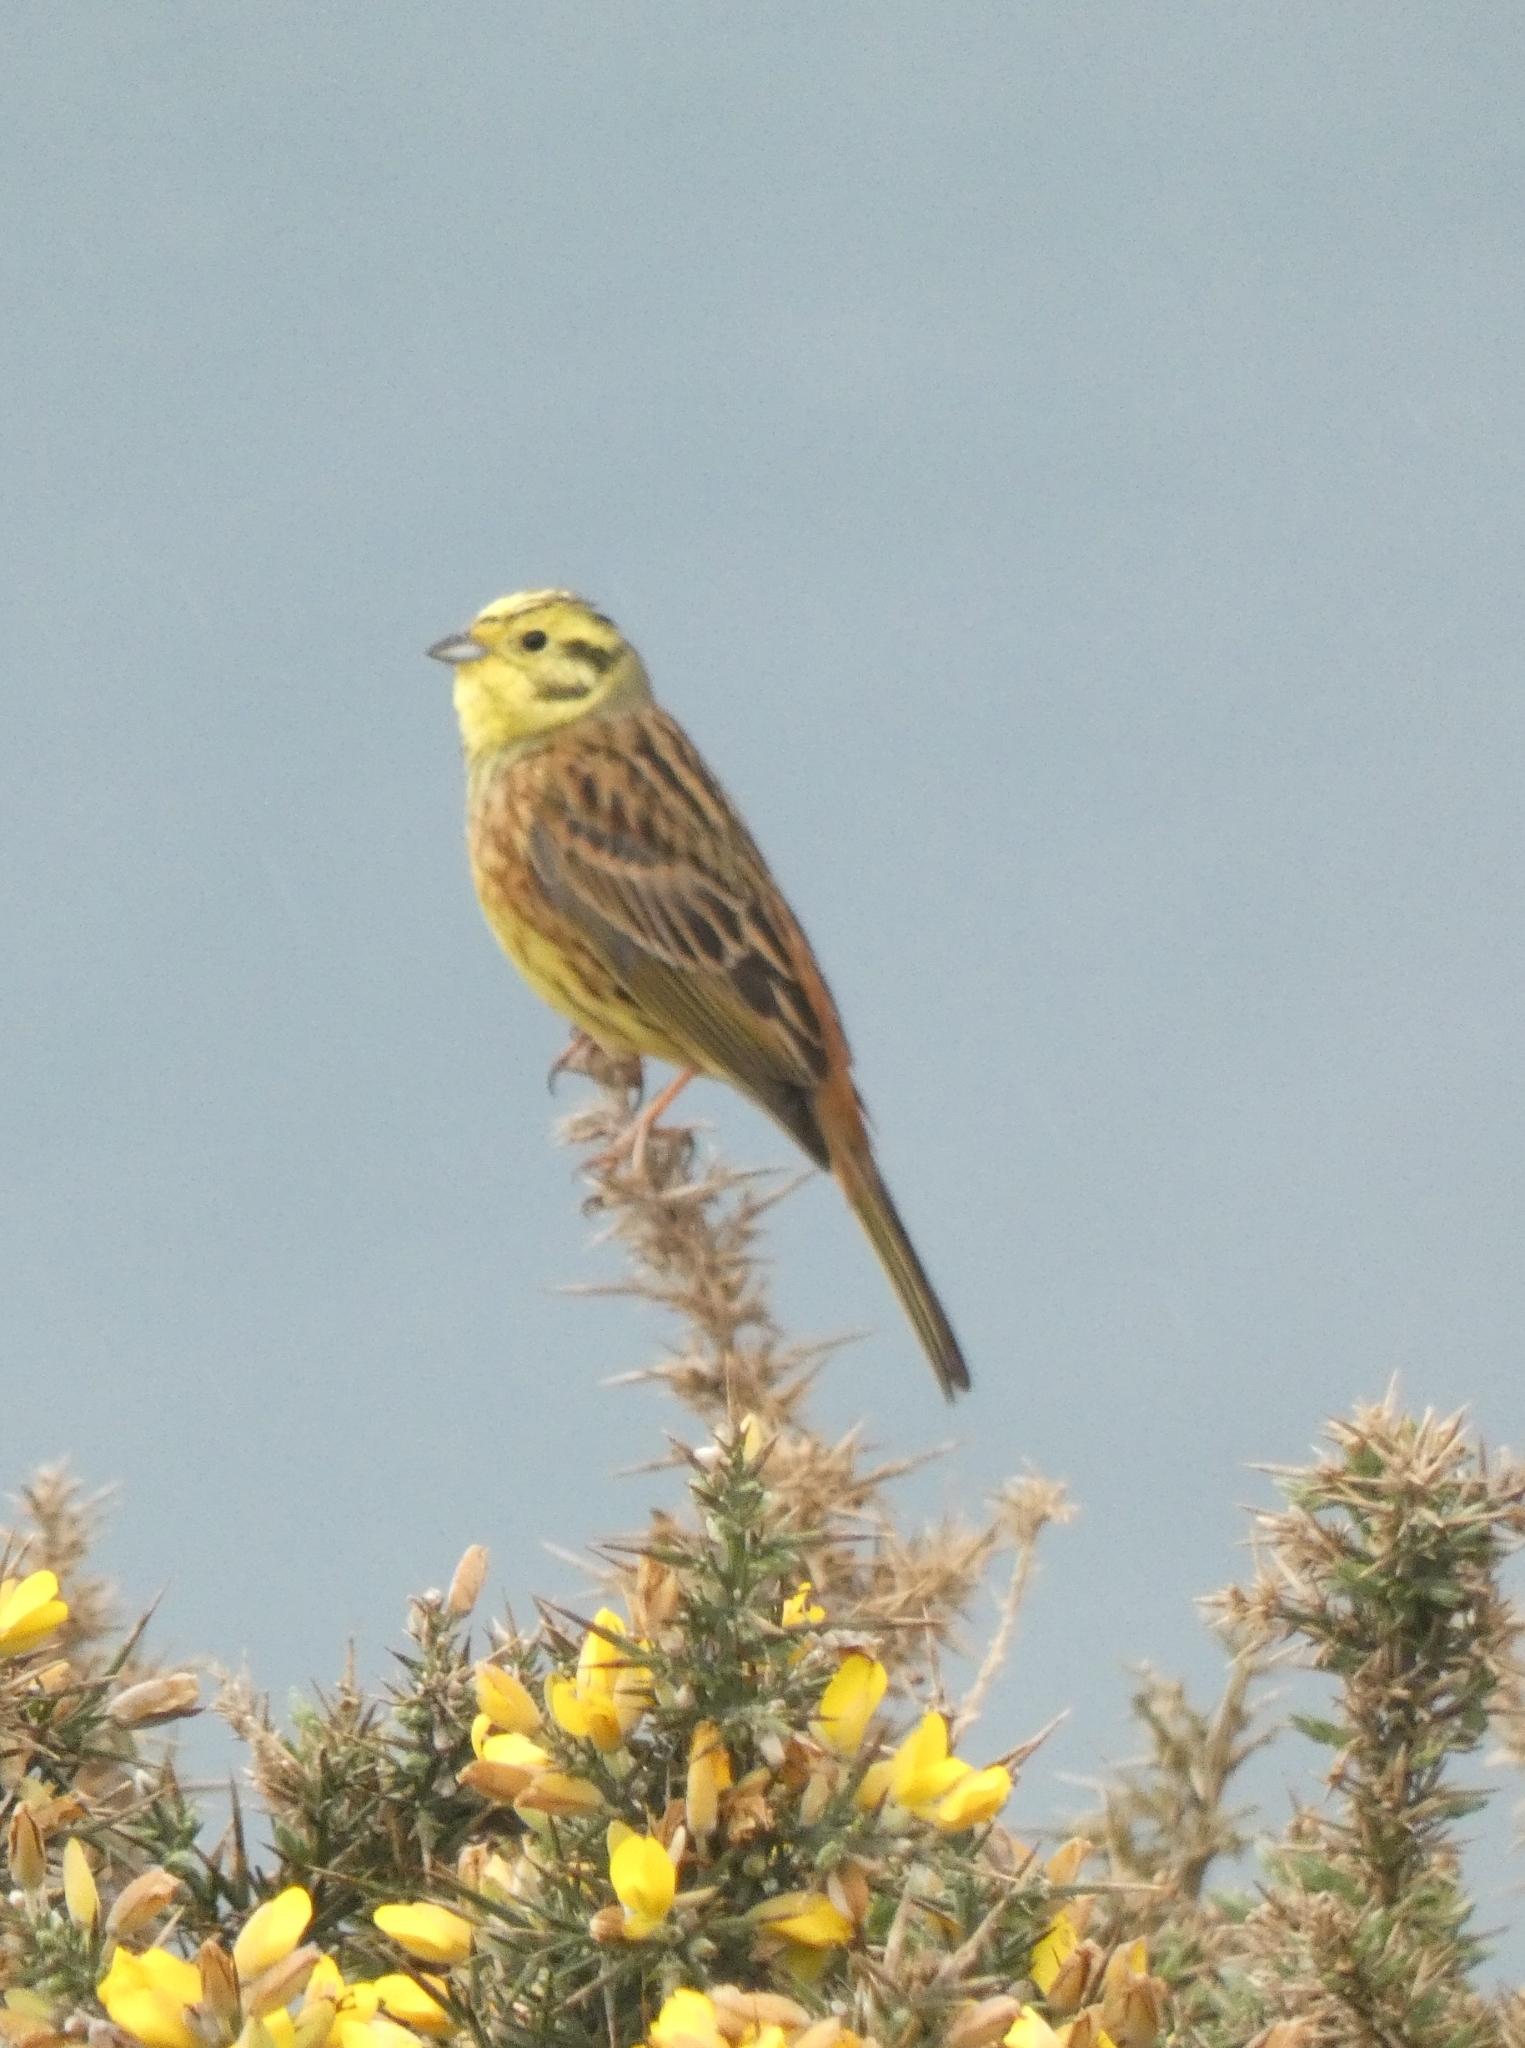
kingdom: Animalia
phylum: Chordata
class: Aves
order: Passeriformes
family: Emberizidae
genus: Emberiza
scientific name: Emberiza citrinella
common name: Yellowhammer
